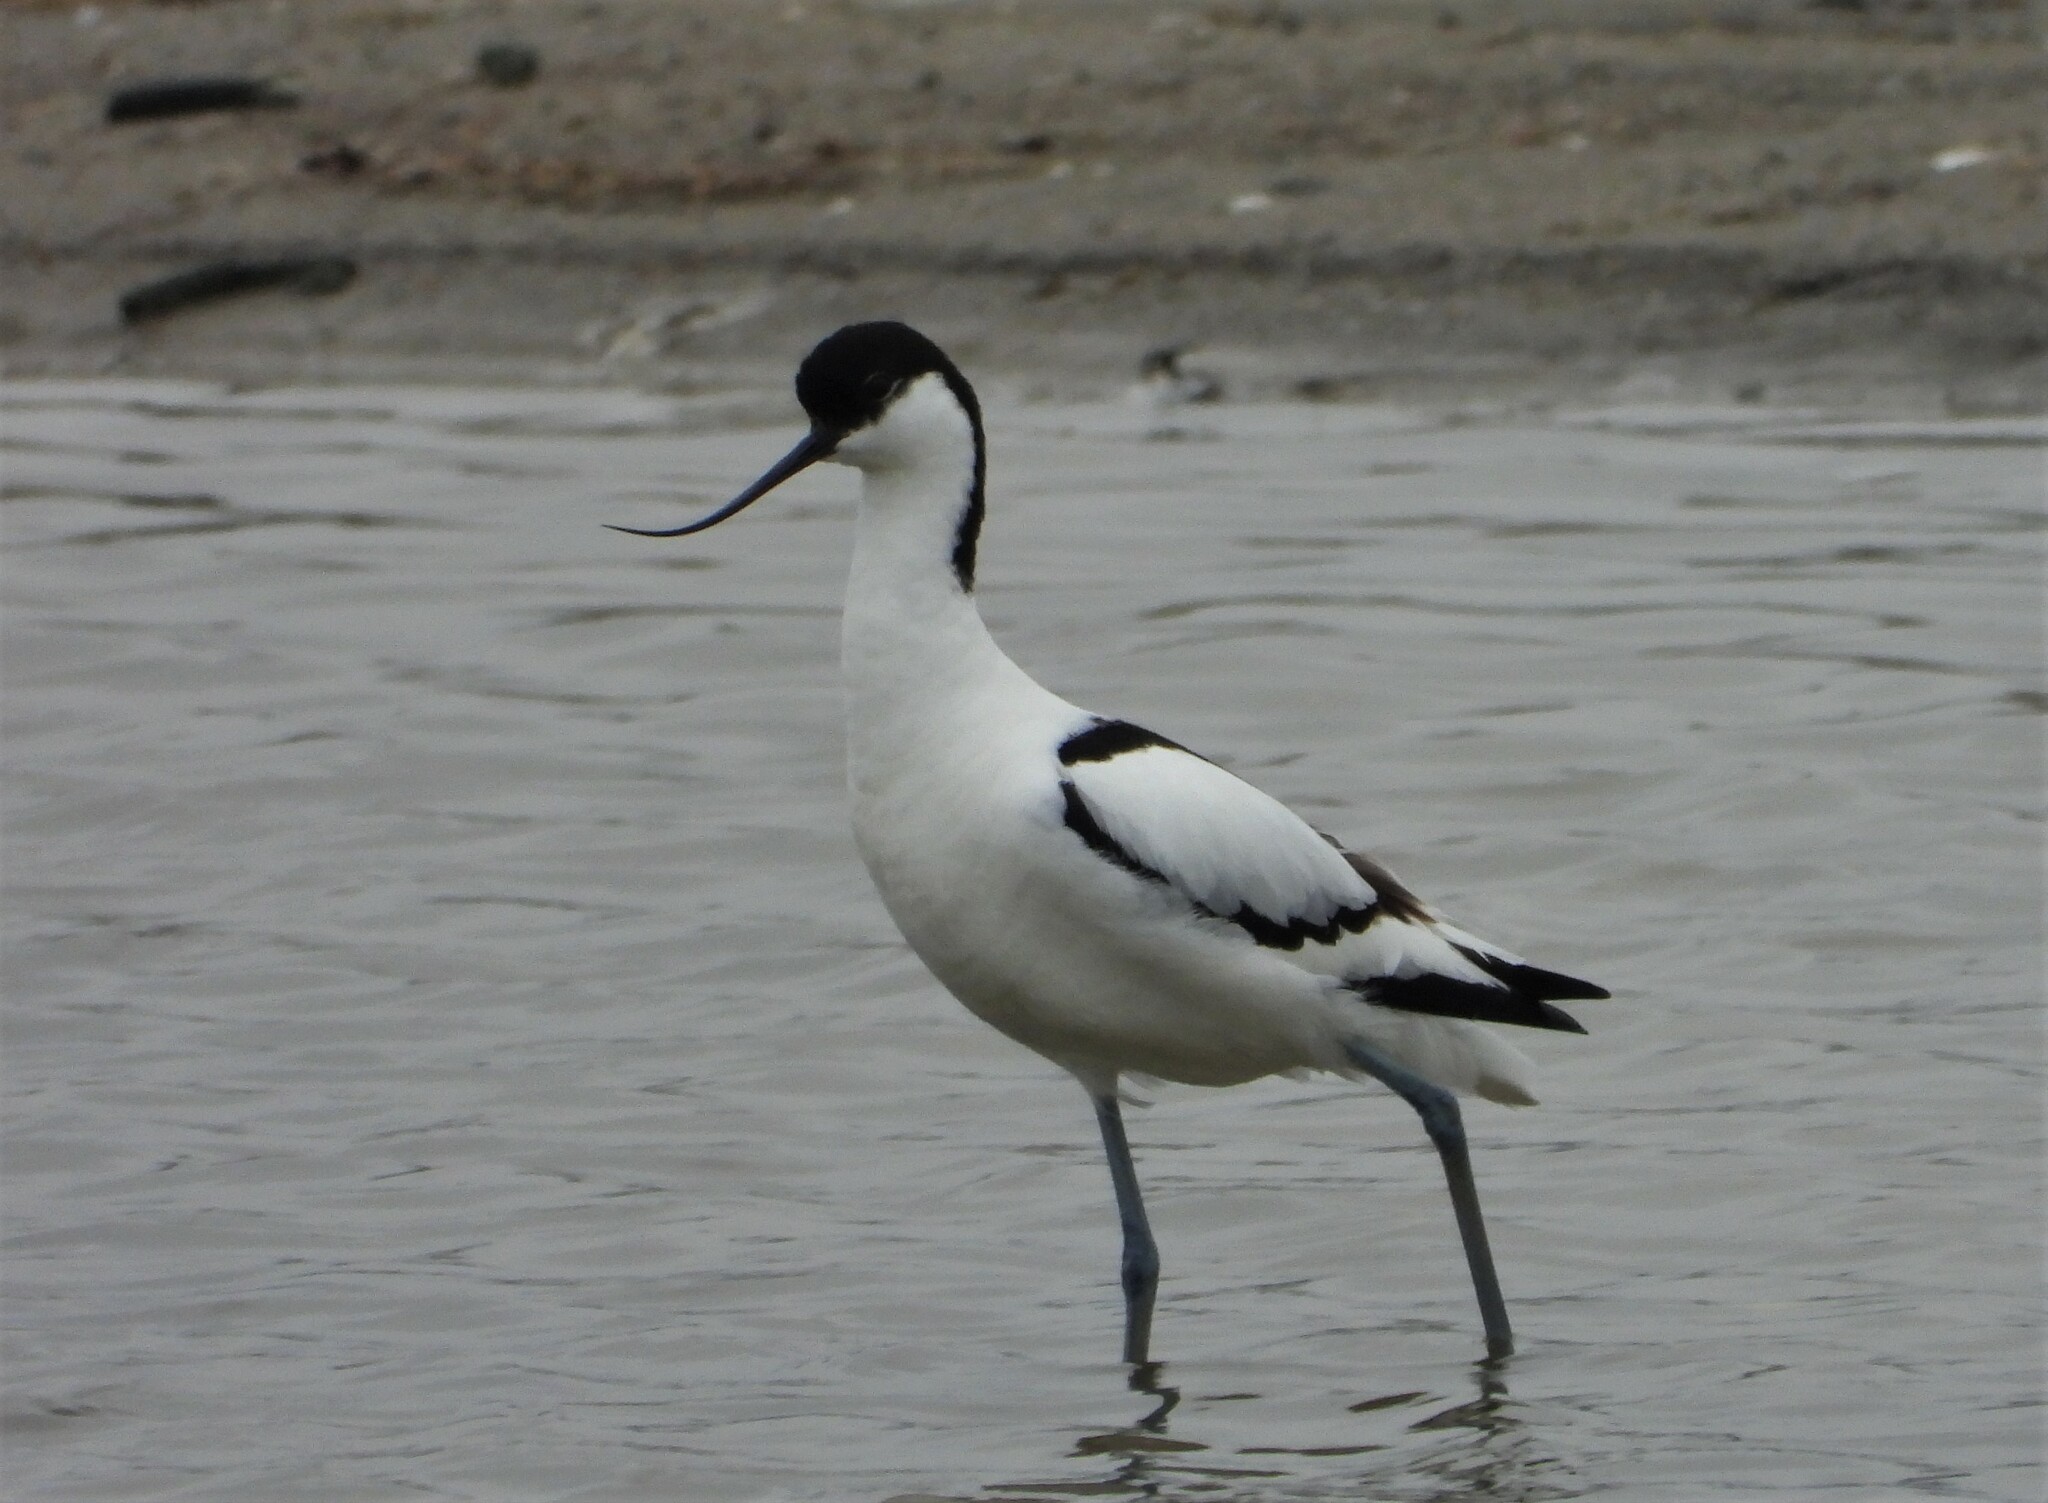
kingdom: Animalia
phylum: Chordata
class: Aves
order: Charadriiformes
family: Recurvirostridae
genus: Recurvirostra
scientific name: Recurvirostra avosetta
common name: Pied avocet
